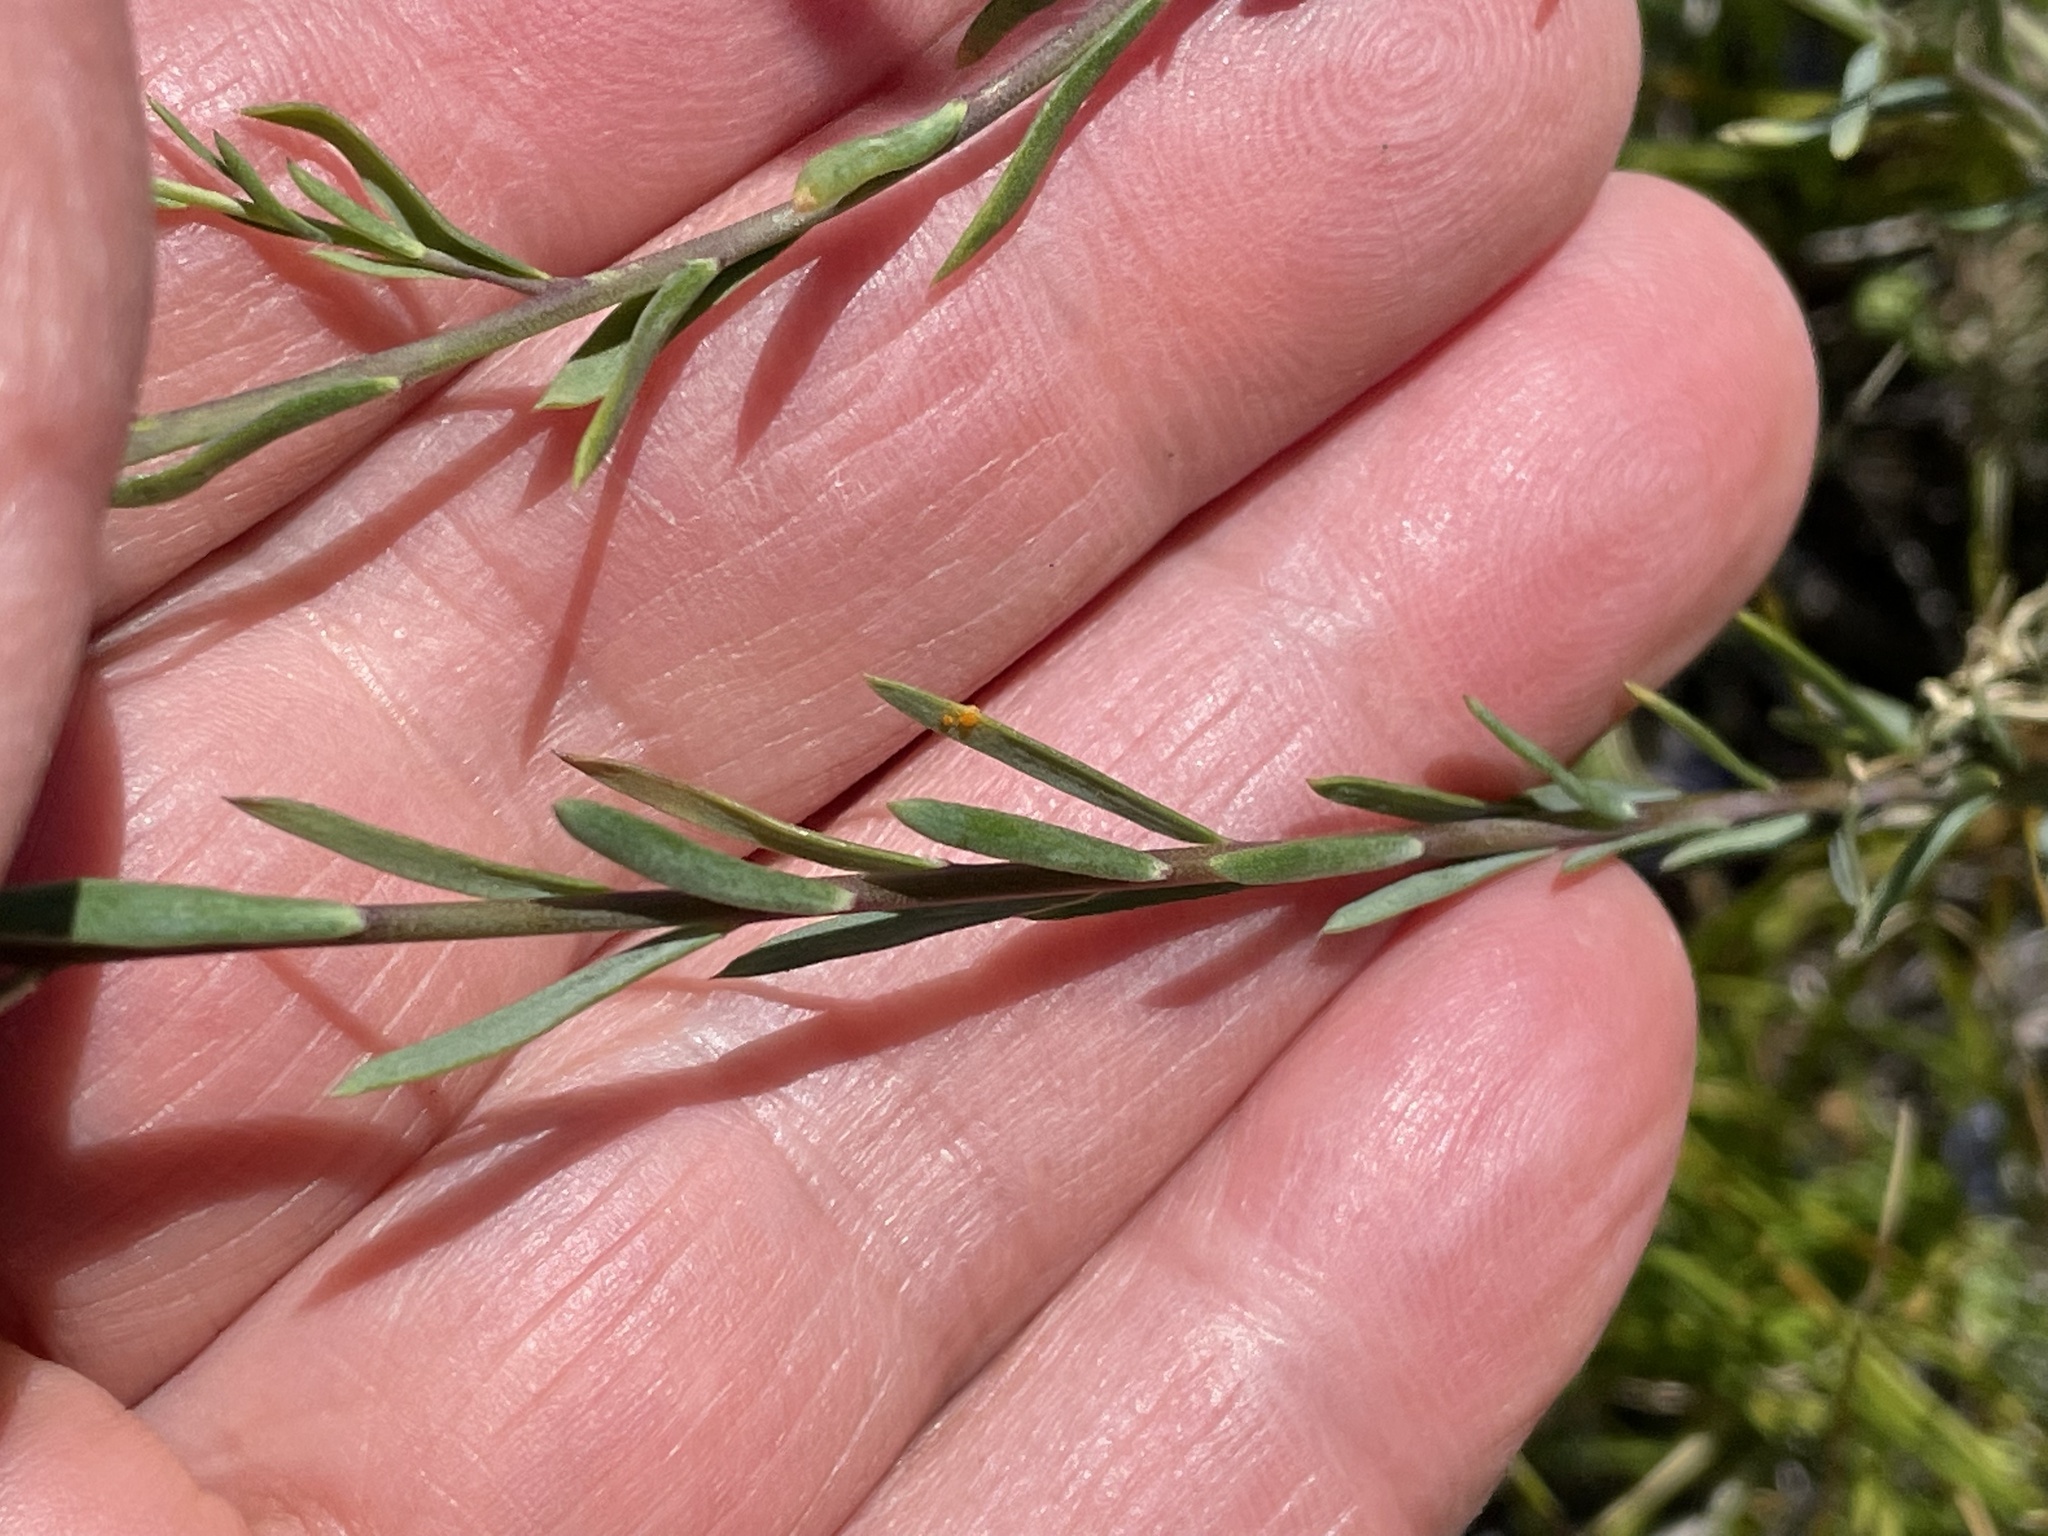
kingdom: Plantae
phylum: Tracheophyta
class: Magnoliopsida
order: Malpighiales
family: Linaceae
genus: Linum
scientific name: Linum lewisii
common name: Prairie flax
